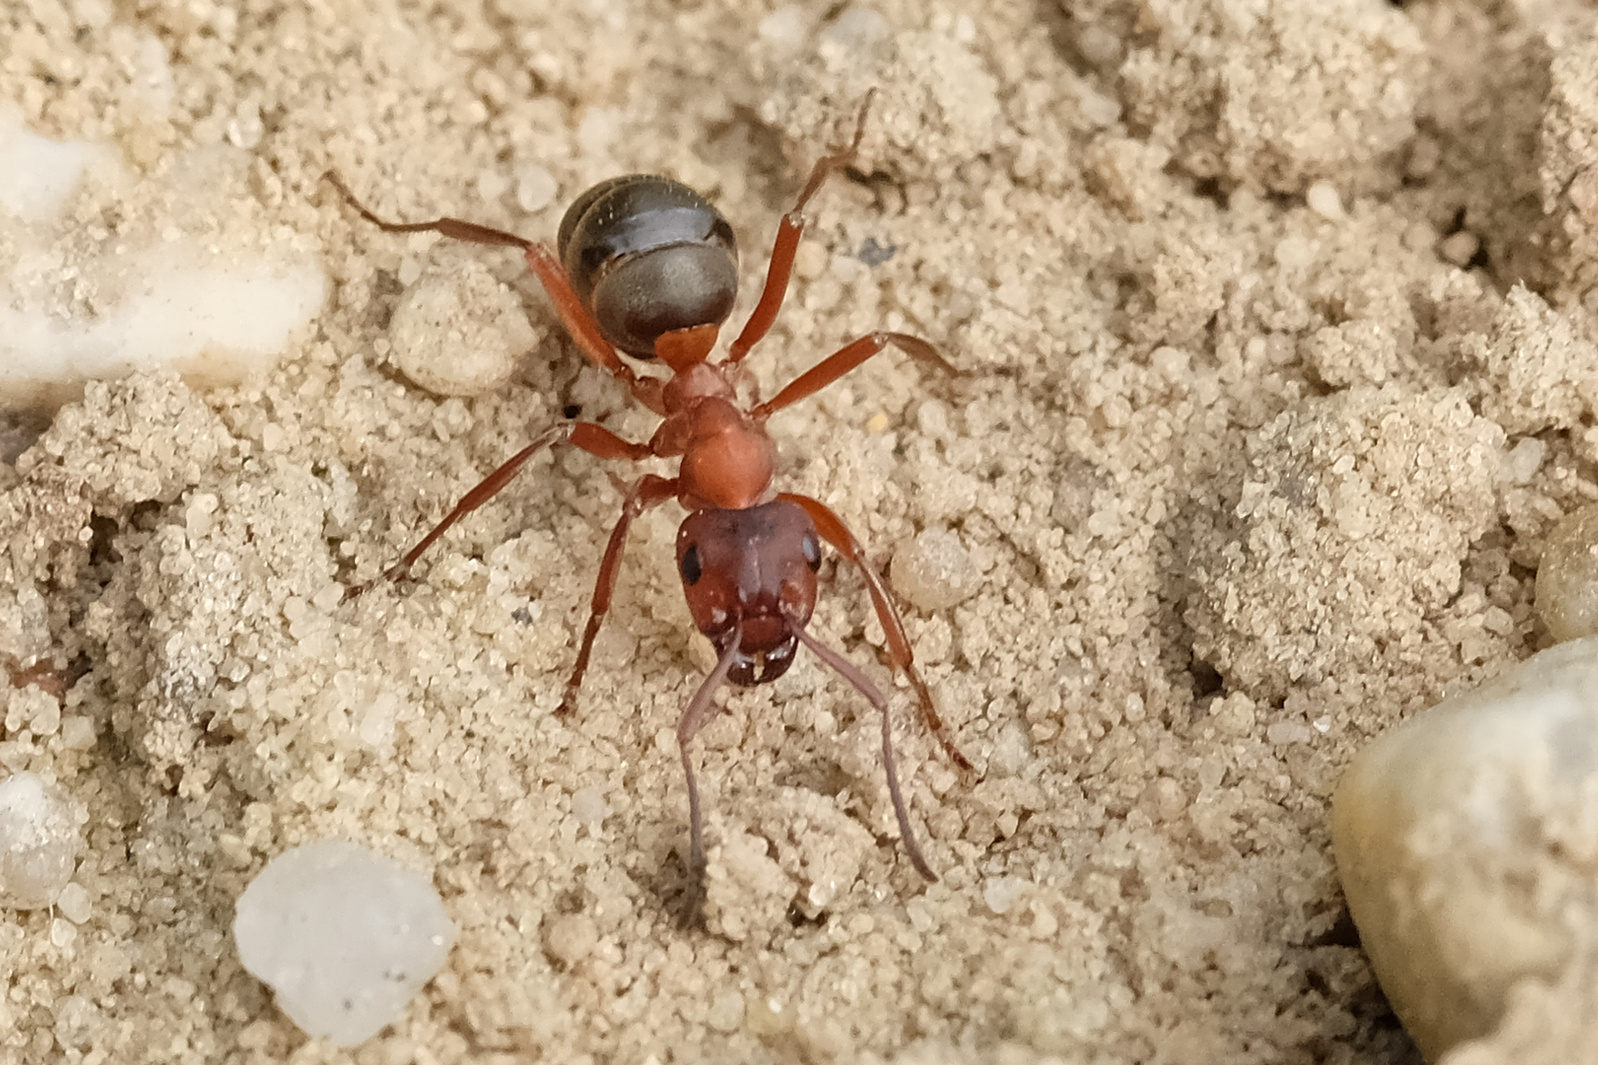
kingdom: Animalia
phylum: Arthropoda
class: Insecta
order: Hymenoptera
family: Formicidae
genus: Formica
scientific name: Formica sanguinea
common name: Blood-red ant
